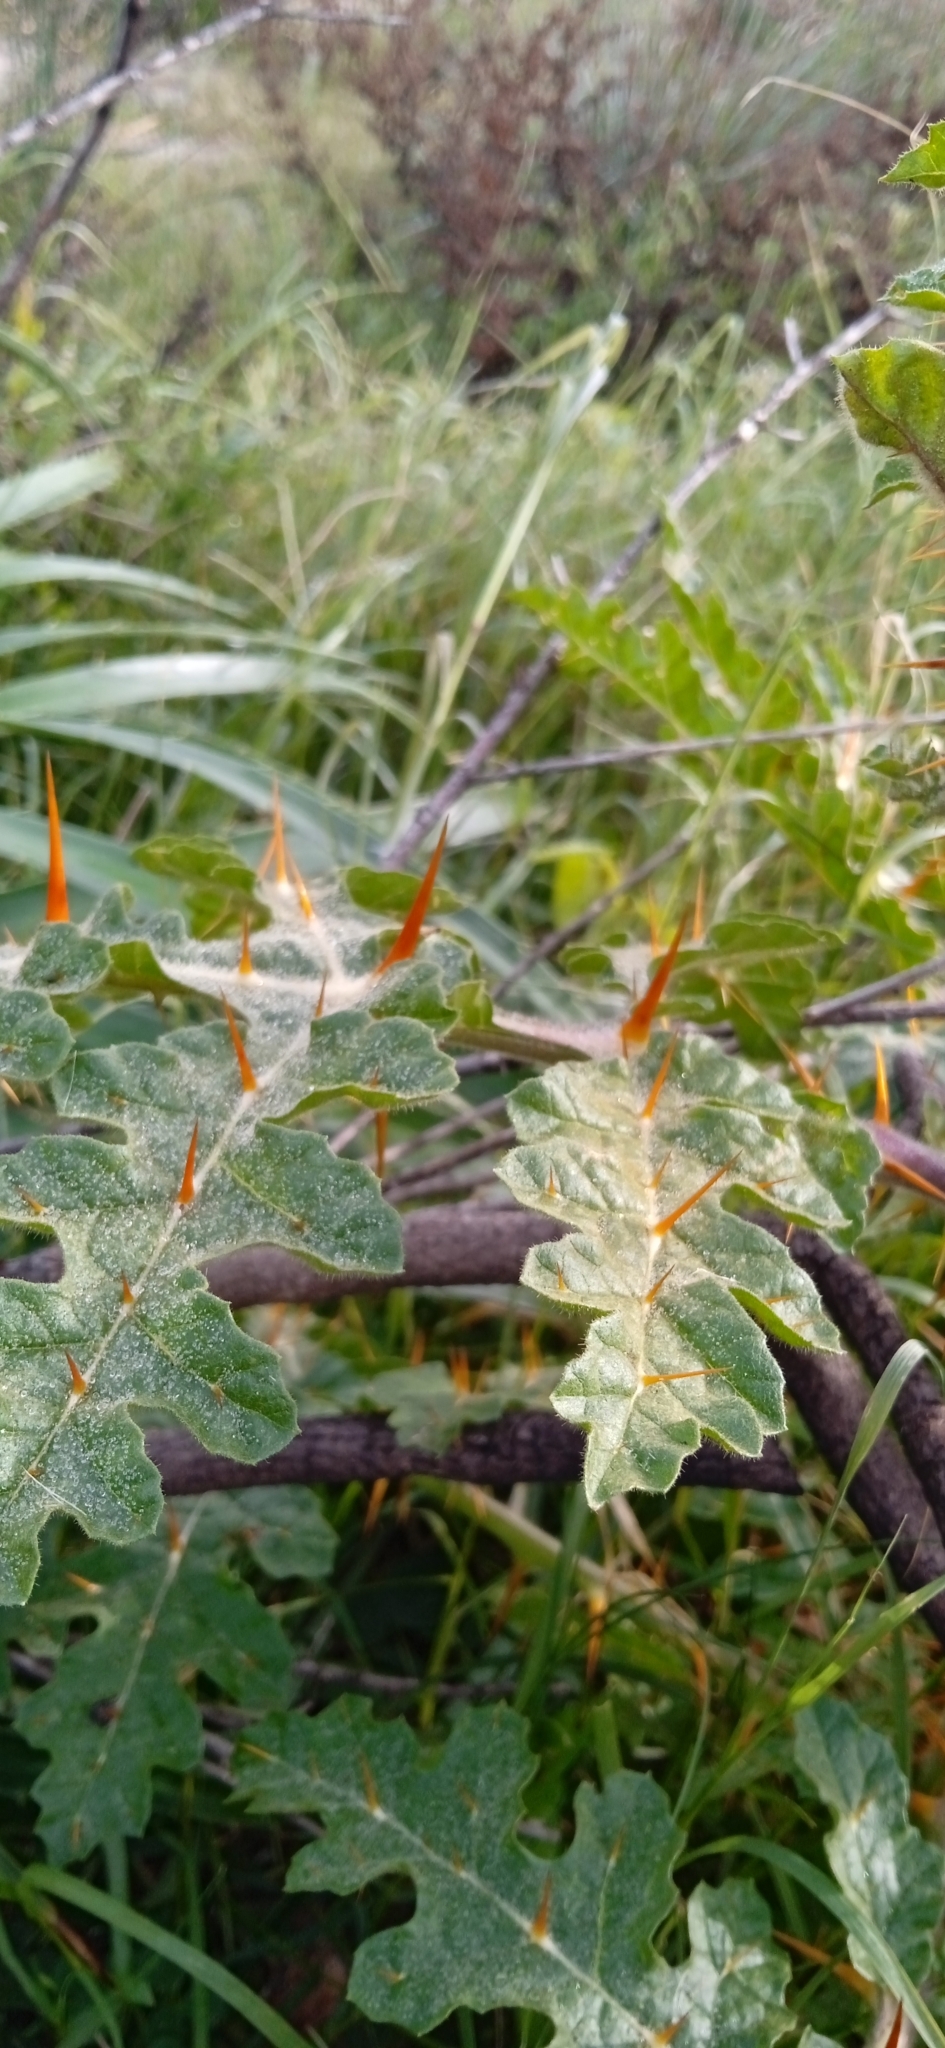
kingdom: Plantae
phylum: Tracheophyta
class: Magnoliopsida
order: Solanales
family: Solanaceae
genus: Solanum
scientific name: Solanum sisymbriifolium
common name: Red buffalo-bur
